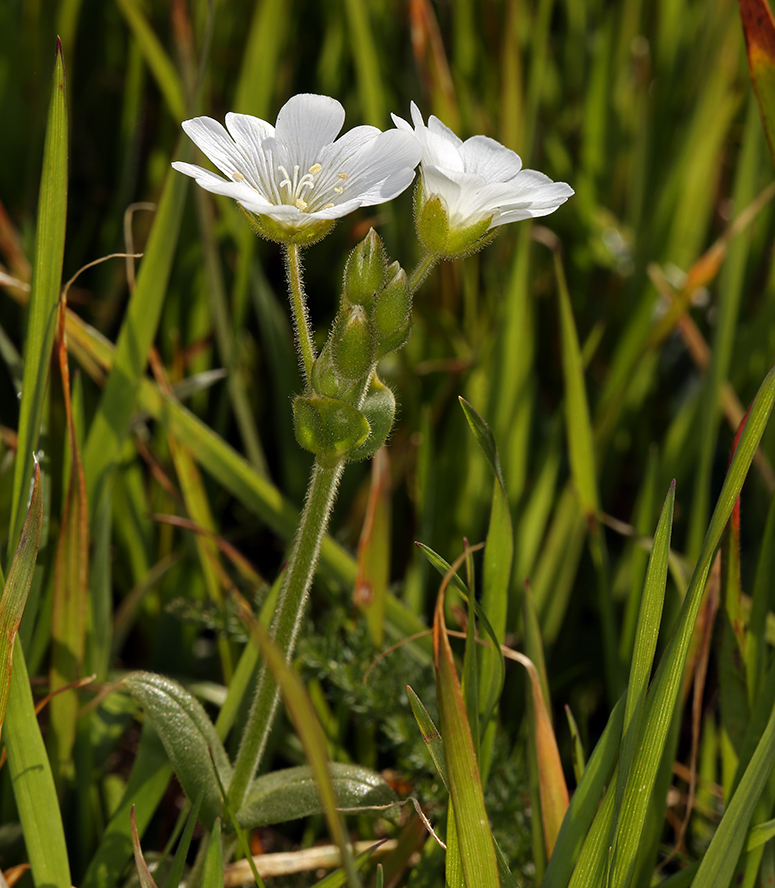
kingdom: Plantae
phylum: Tracheophyta
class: Magnoliopsida
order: Caryophyllales
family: Caryophyllaceae
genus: Cerastium
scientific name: Cerastium viride
